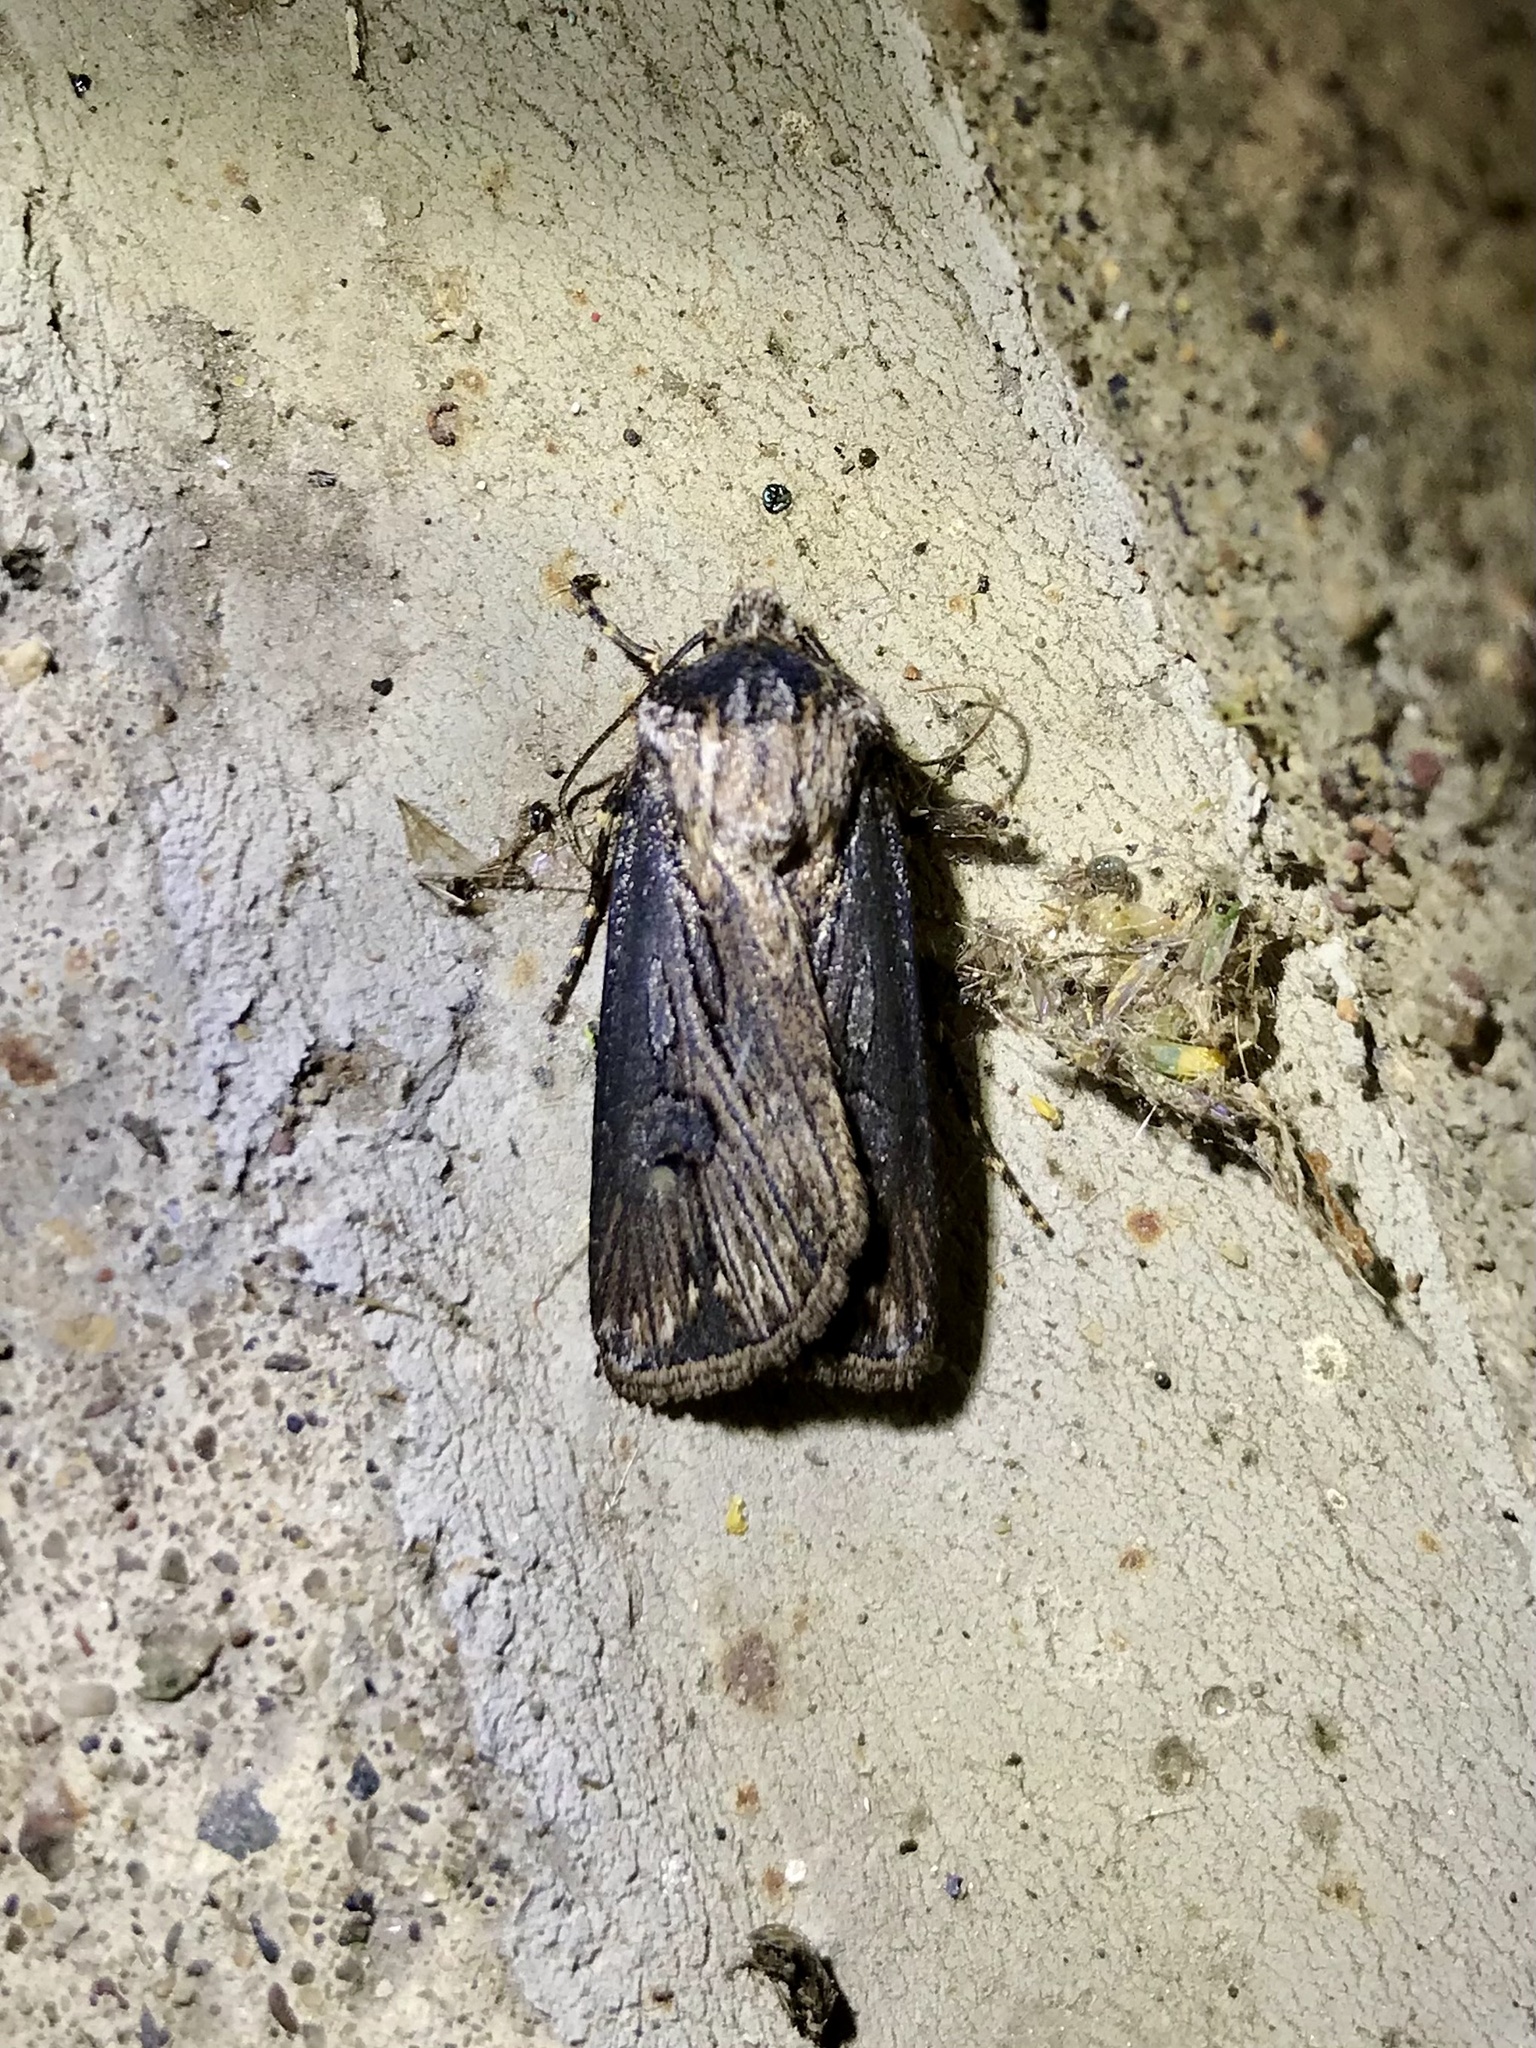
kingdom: Animalia
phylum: Arthropoda
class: Insecta
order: Lepidoptera
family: Noctuidae
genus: Agrotis
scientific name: Agrotis venerabilis
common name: Venerable dart
